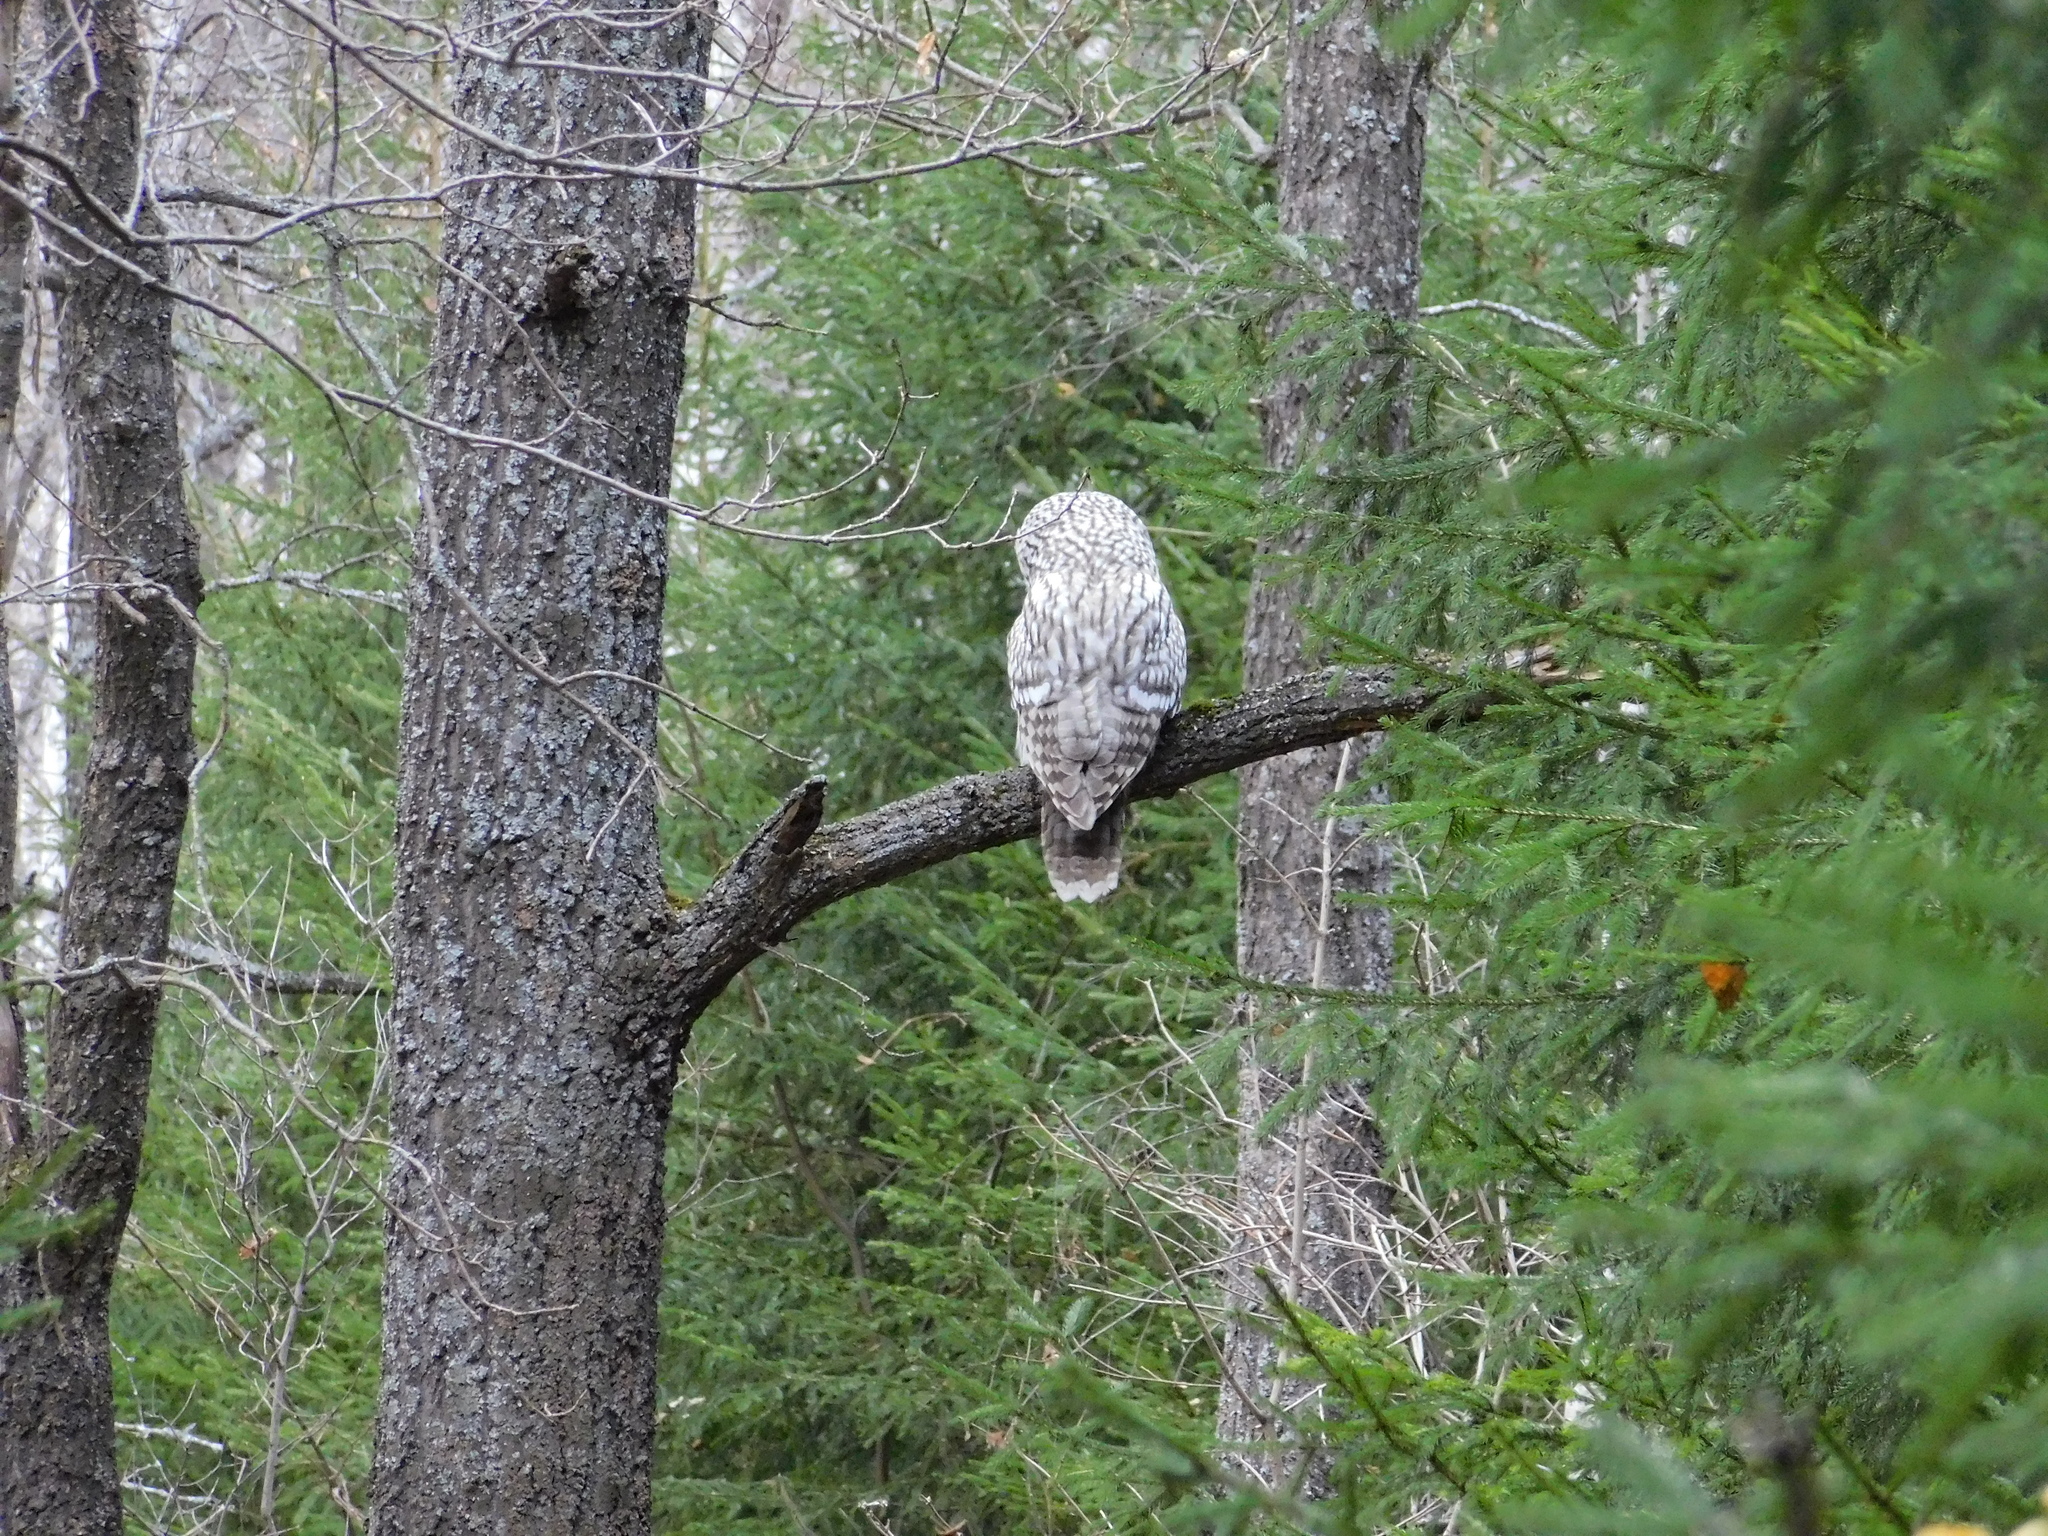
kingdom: Animalia
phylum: Chordata
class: Aves
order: Strigiformes
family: Strigidae
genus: Strix
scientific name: Strix uralensis
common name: Ural owl
